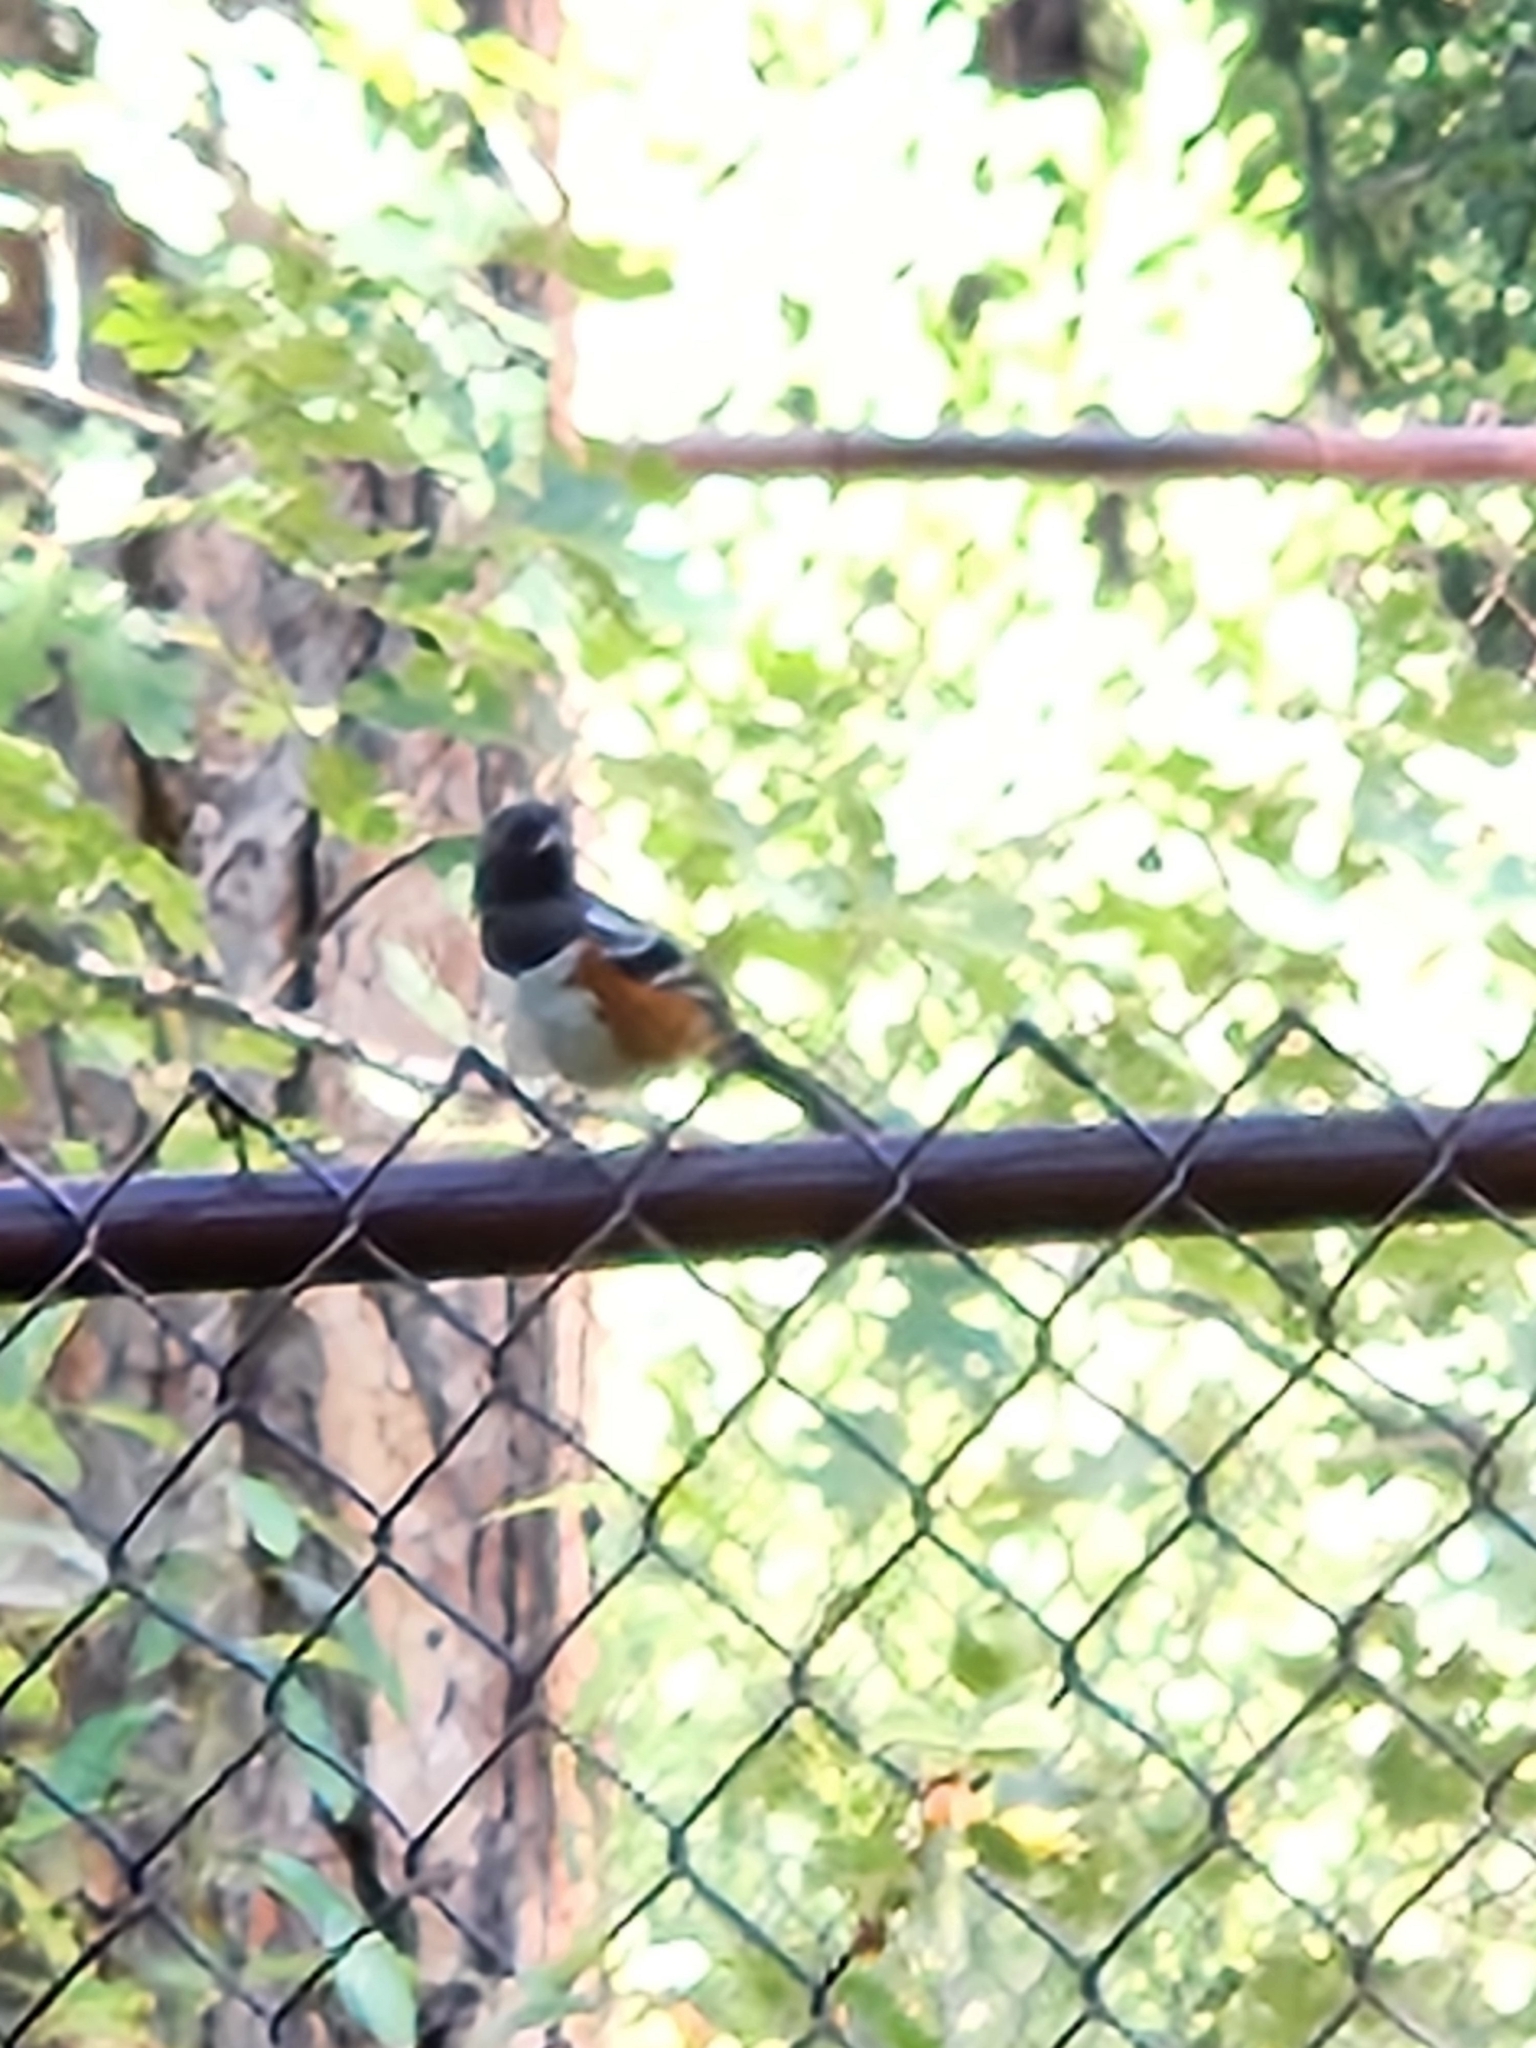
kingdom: Animalia
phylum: Chordata
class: Aves
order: Passeriformes
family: Passerellidae
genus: Pipilo
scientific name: Pipilo maculatus
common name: Spotted towhee
